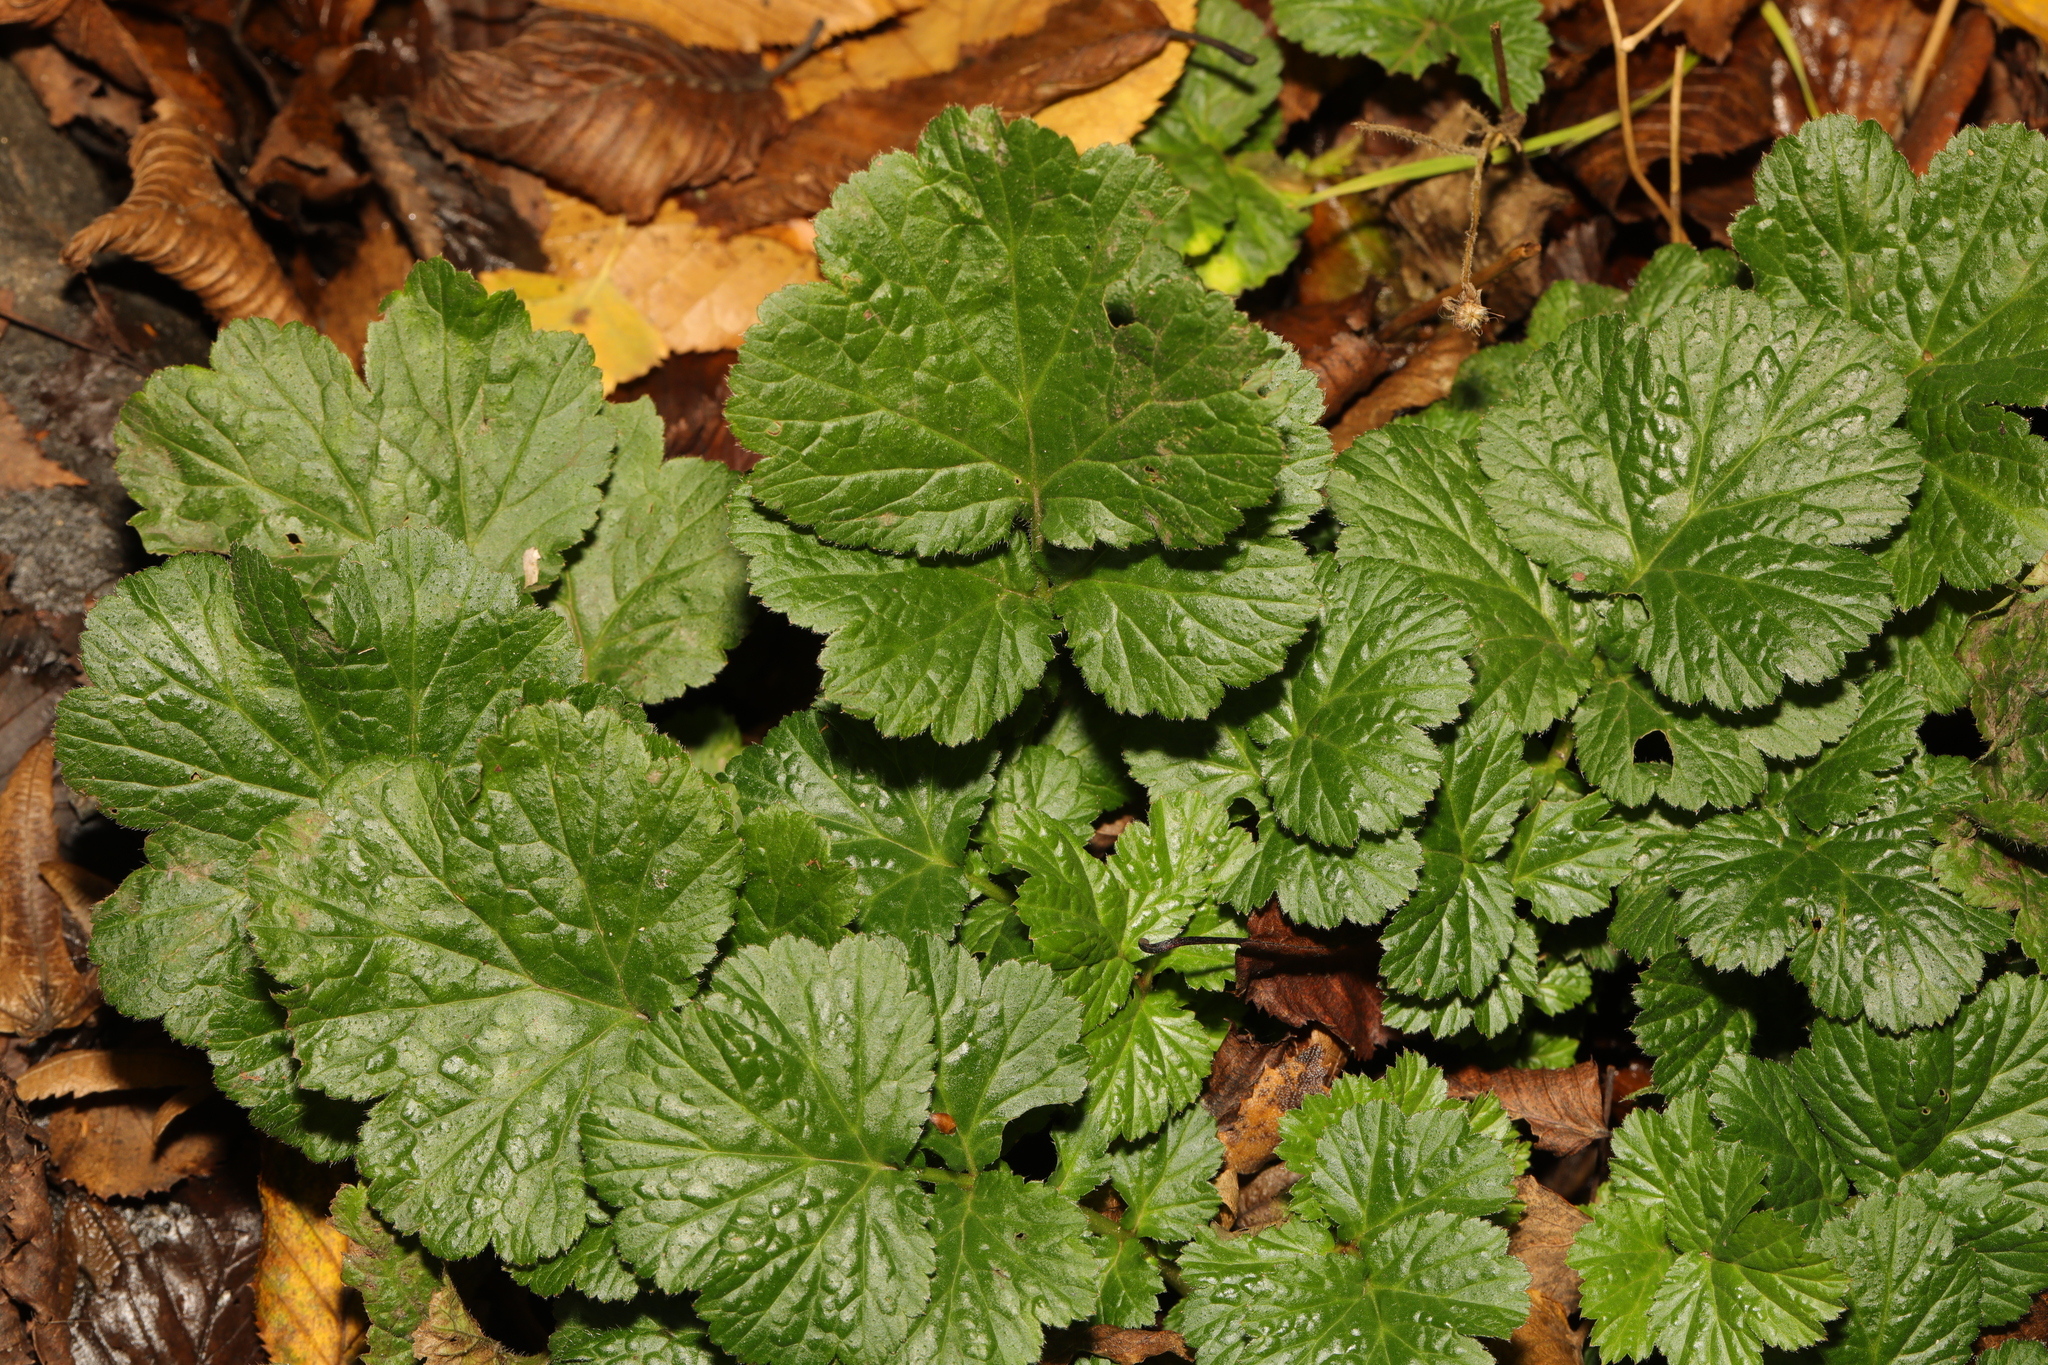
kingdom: Plantae
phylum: Tracheophyta
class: Magnoliopsida
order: Rosales
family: Rosaceae
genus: Geum
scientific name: Geum urbanum
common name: Wood avens
